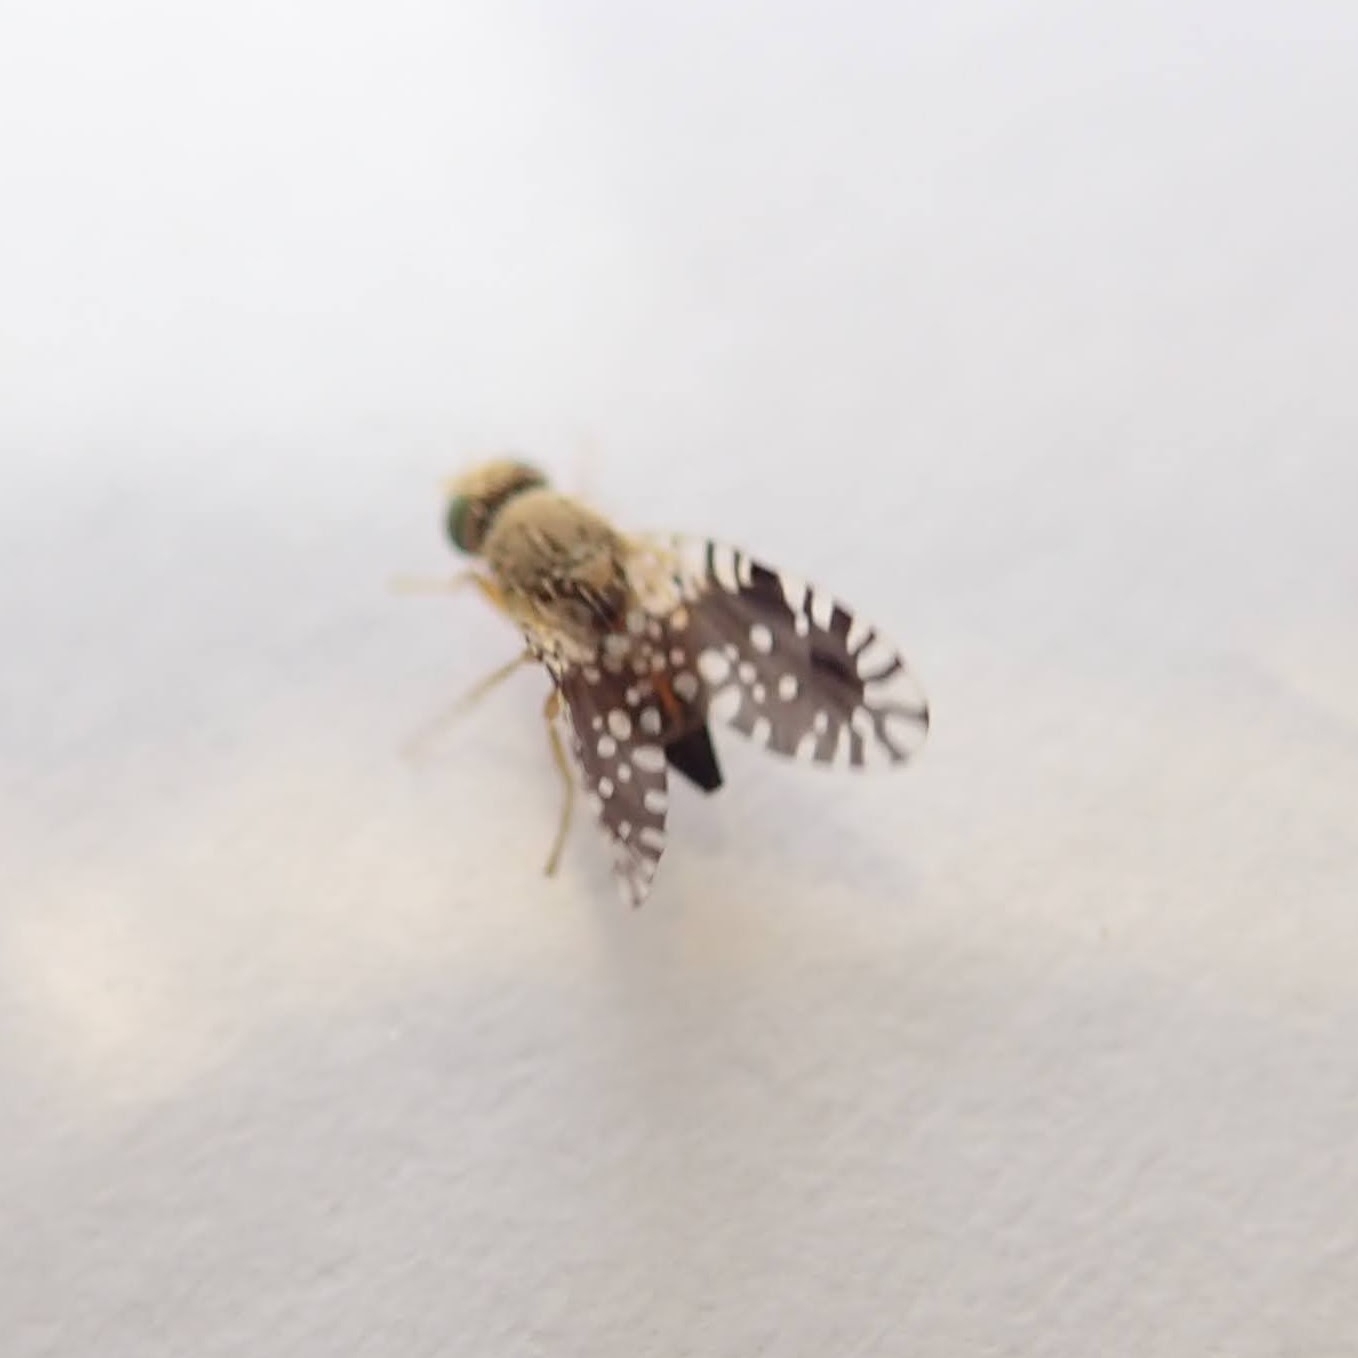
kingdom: Animalia
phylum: Arthropoda
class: Insecta
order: Diptera
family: Tephritidae
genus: Euaresta
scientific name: Euaresta bella
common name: Common ragweed fruit fly
